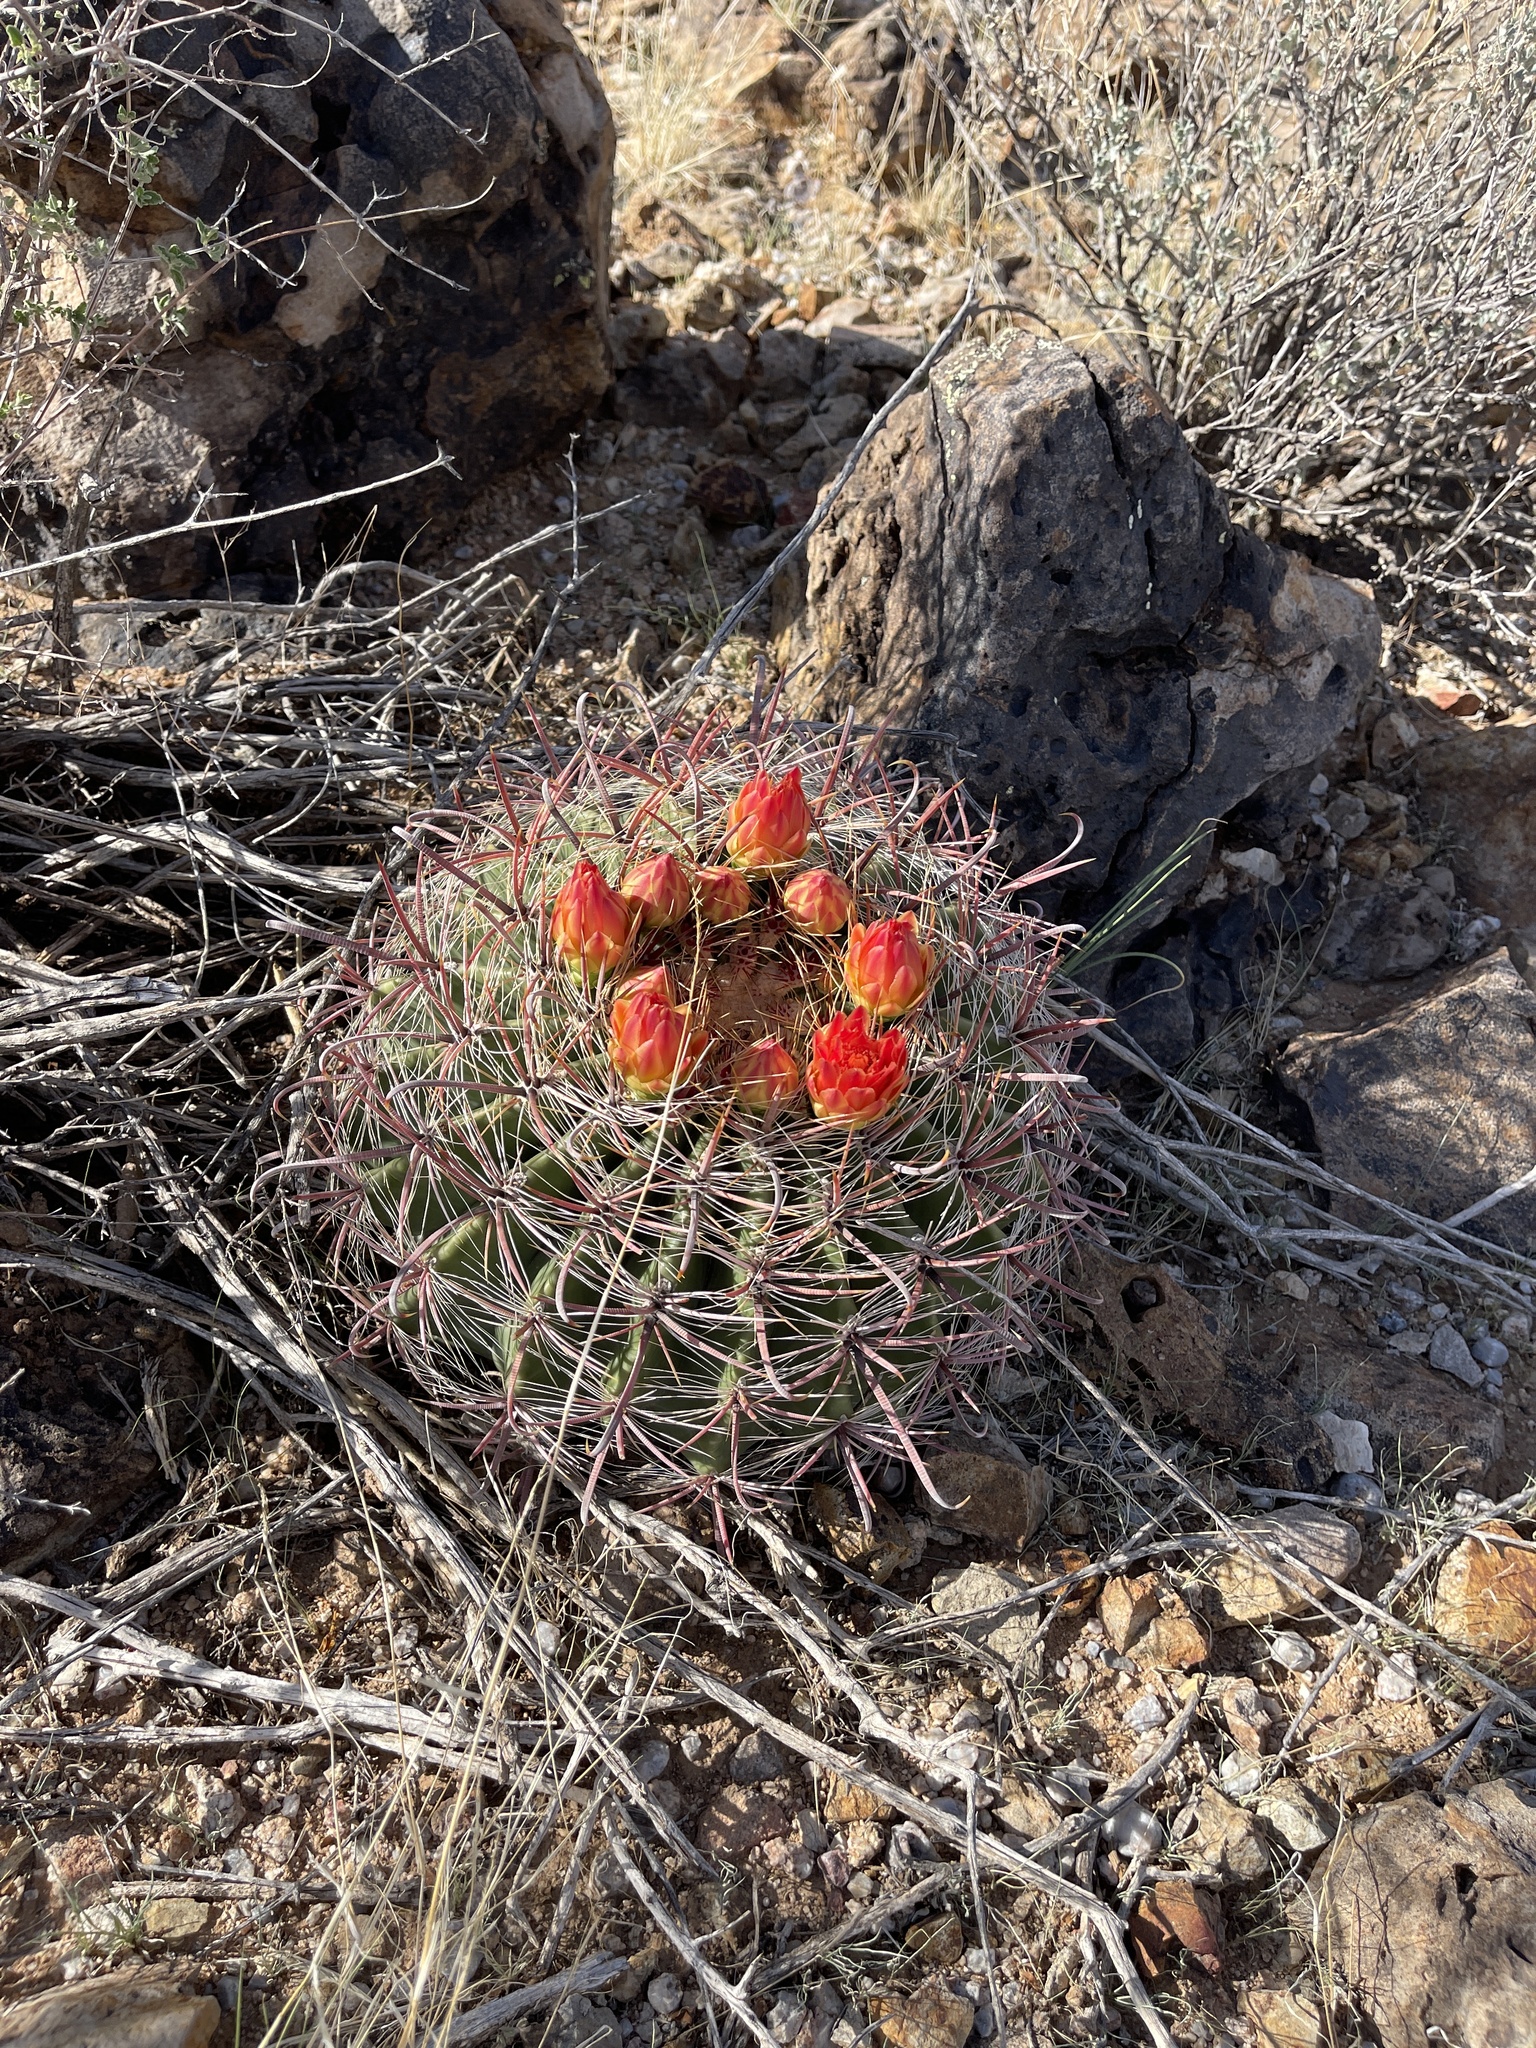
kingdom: Plantae
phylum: Tracheophyta
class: Magnoliopsida
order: Caryophyllales
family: Cactaceae
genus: Ferocactus
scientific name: Ferocactus wislizeni
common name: Candy barrel cactus
